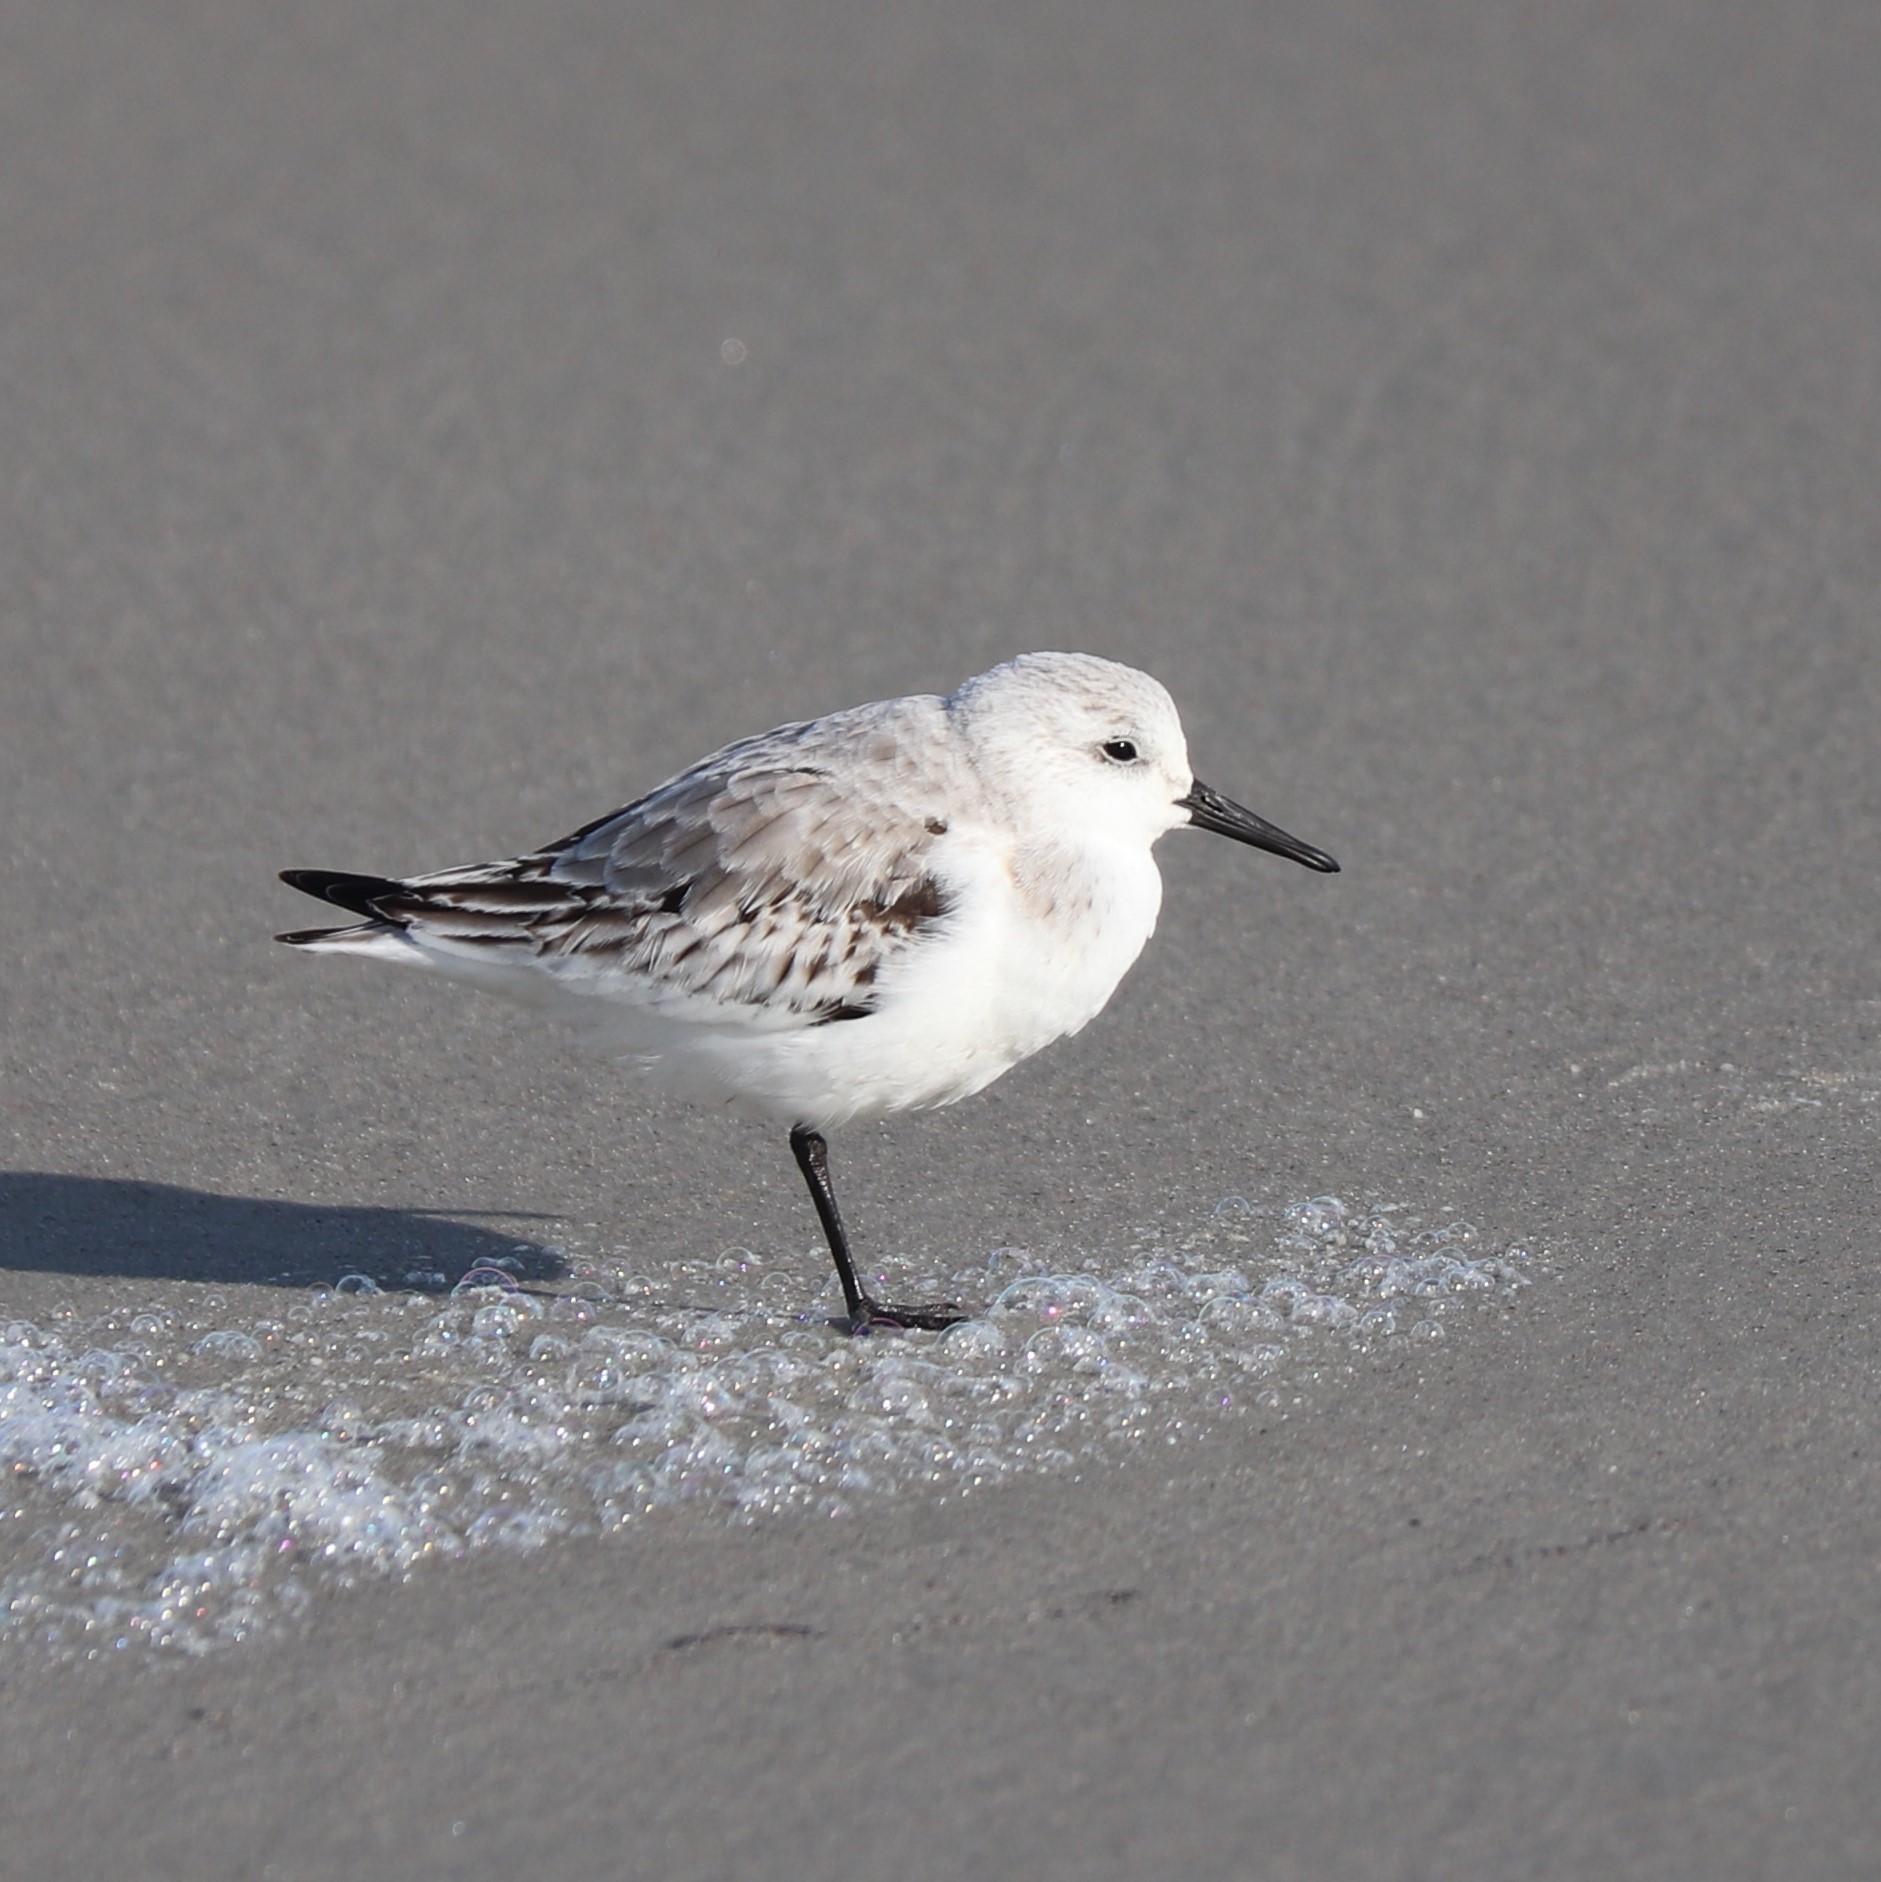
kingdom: Animalia
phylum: Chordata
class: Aves
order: Charadriiformes
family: Scolopacidae
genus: Calidris
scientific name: Calidris alba
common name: Sanderling
